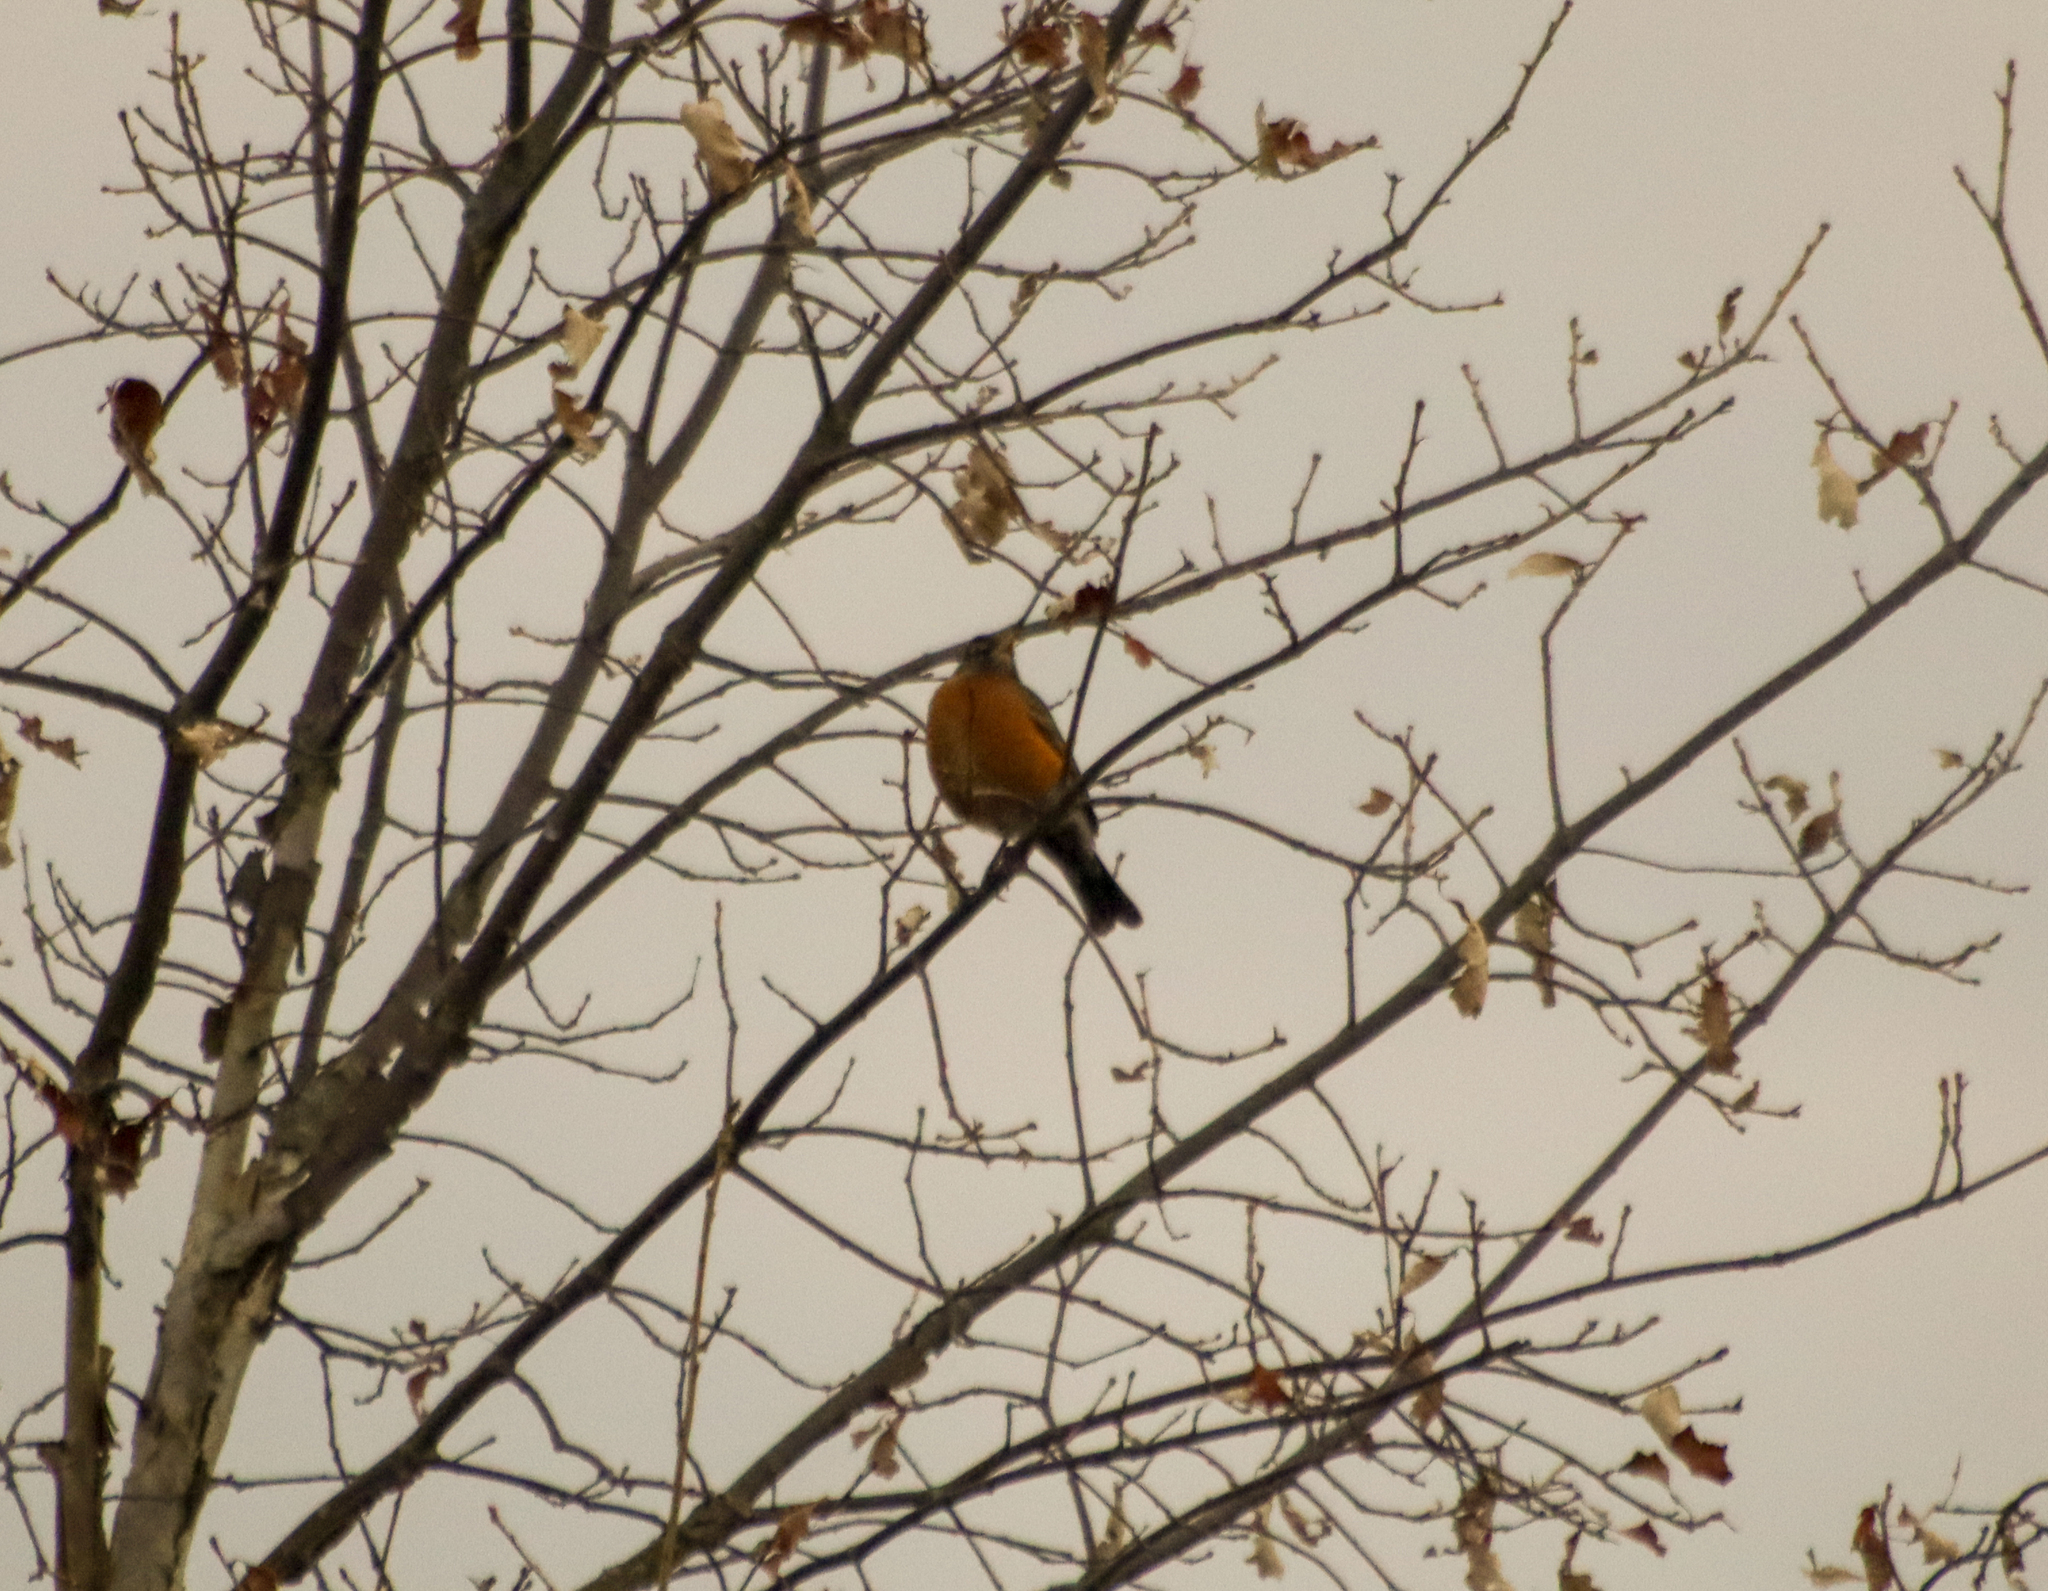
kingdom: Animalia
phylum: Chordata
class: Aves
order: Passeriformes
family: Turdidae
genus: Turdus
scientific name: Turdus migratorius
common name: American robin
